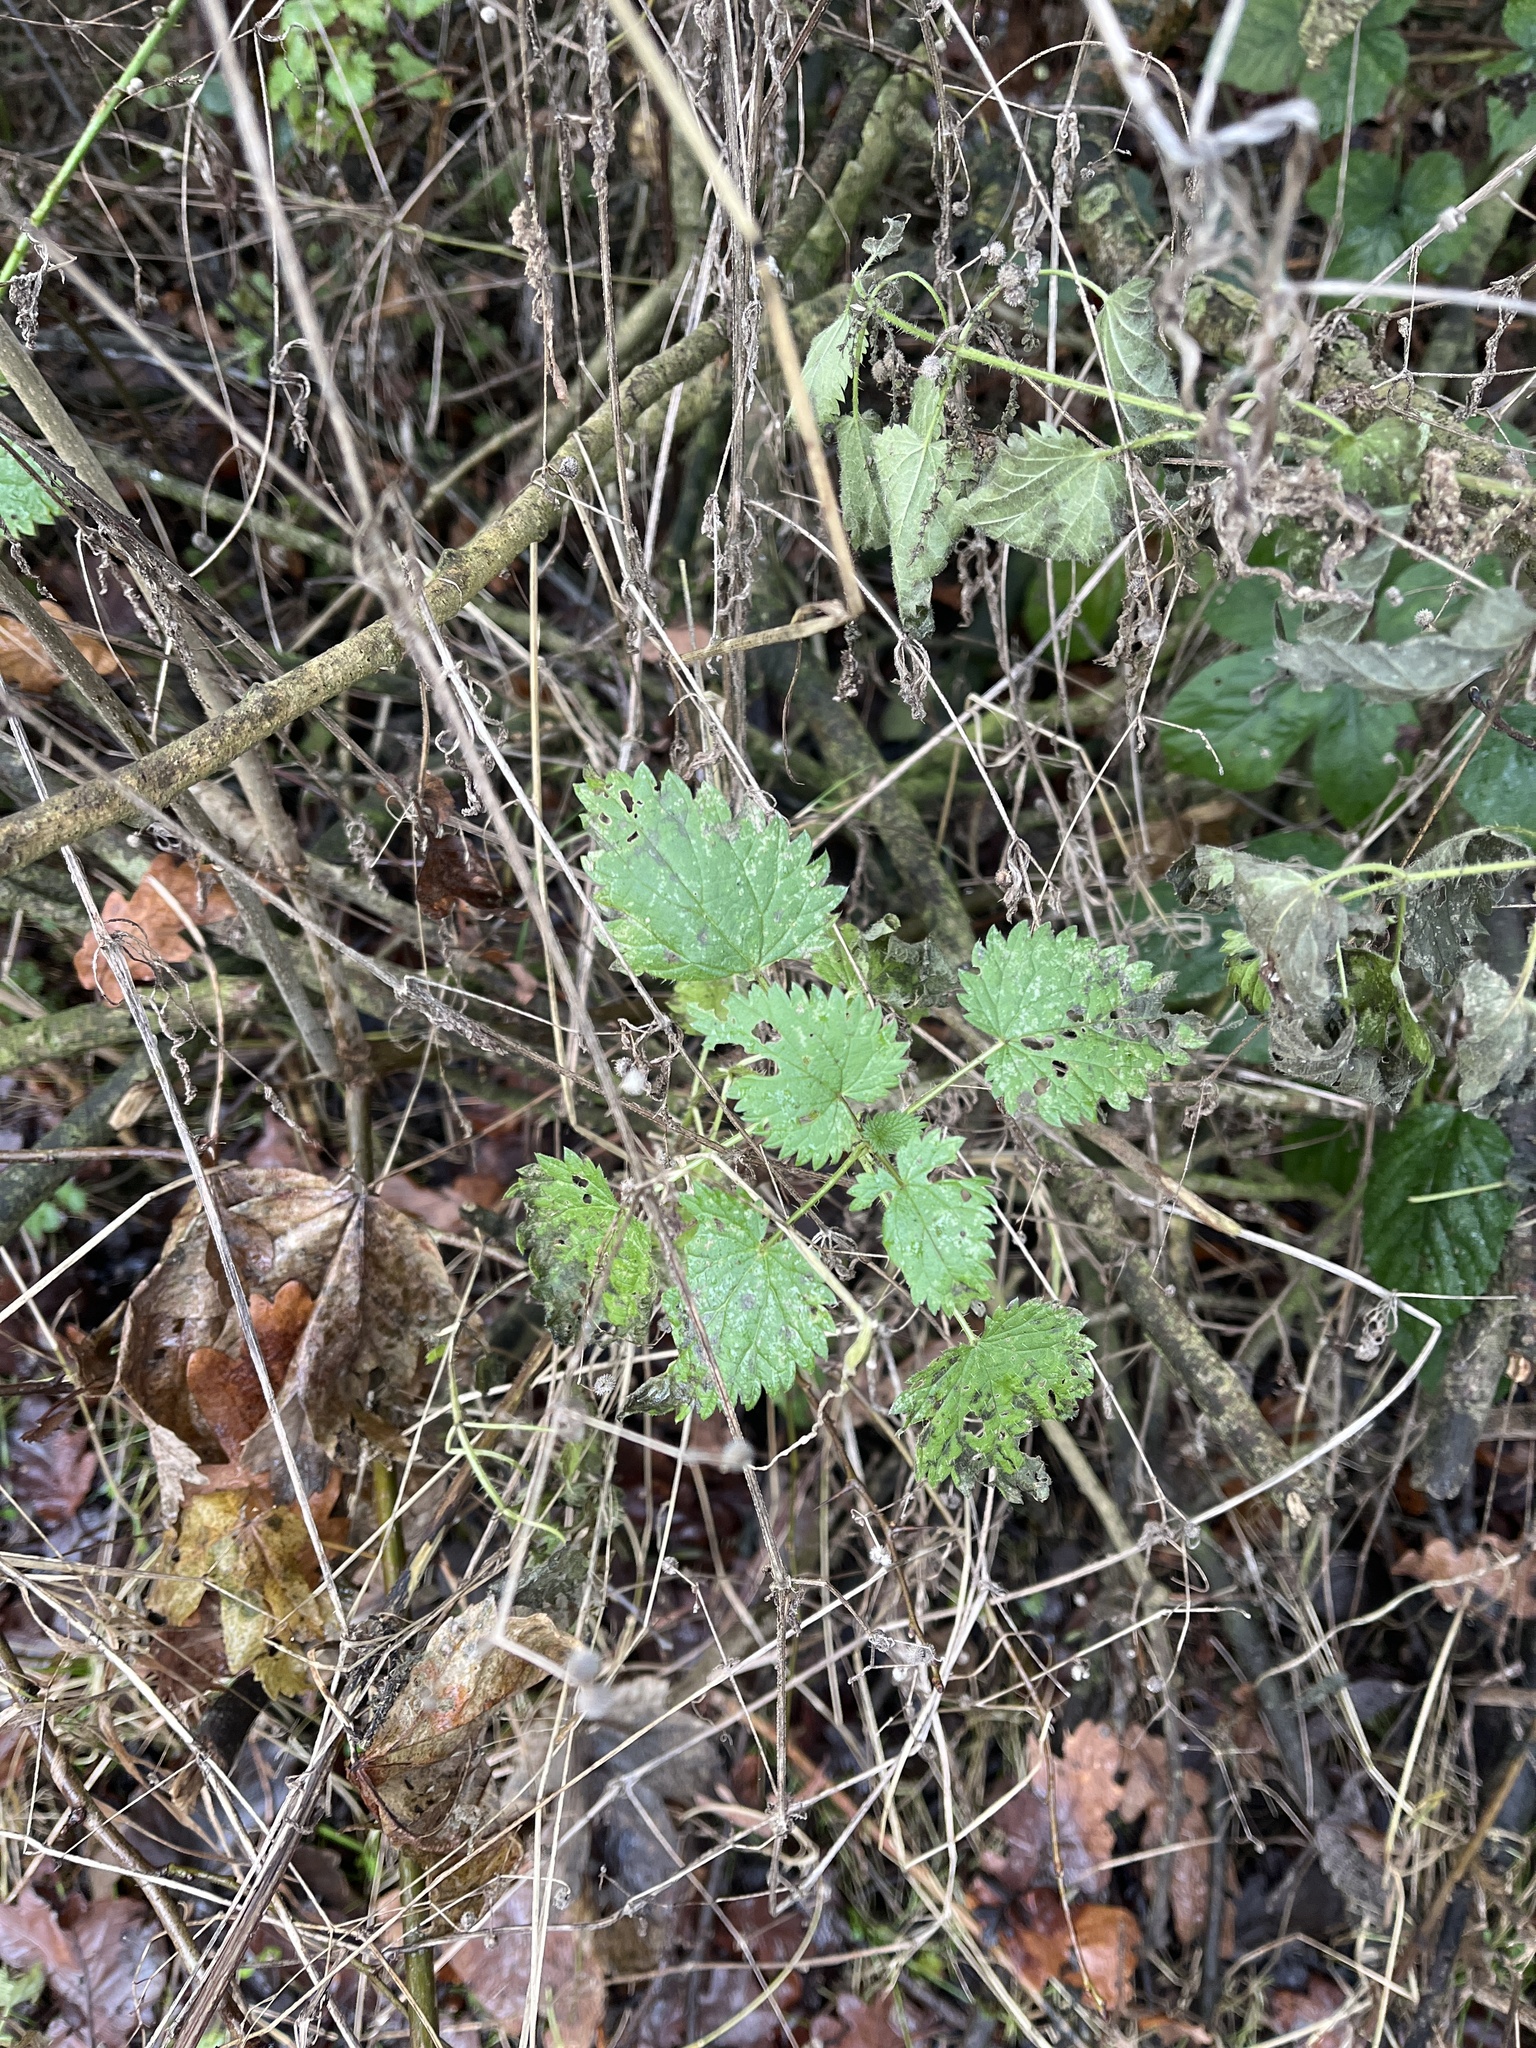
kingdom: Plantae
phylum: Tracheophyta
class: Magnoliopsida
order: Rosales
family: Urticaceae
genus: Urtica
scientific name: Urtica dioica
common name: Common nettle
